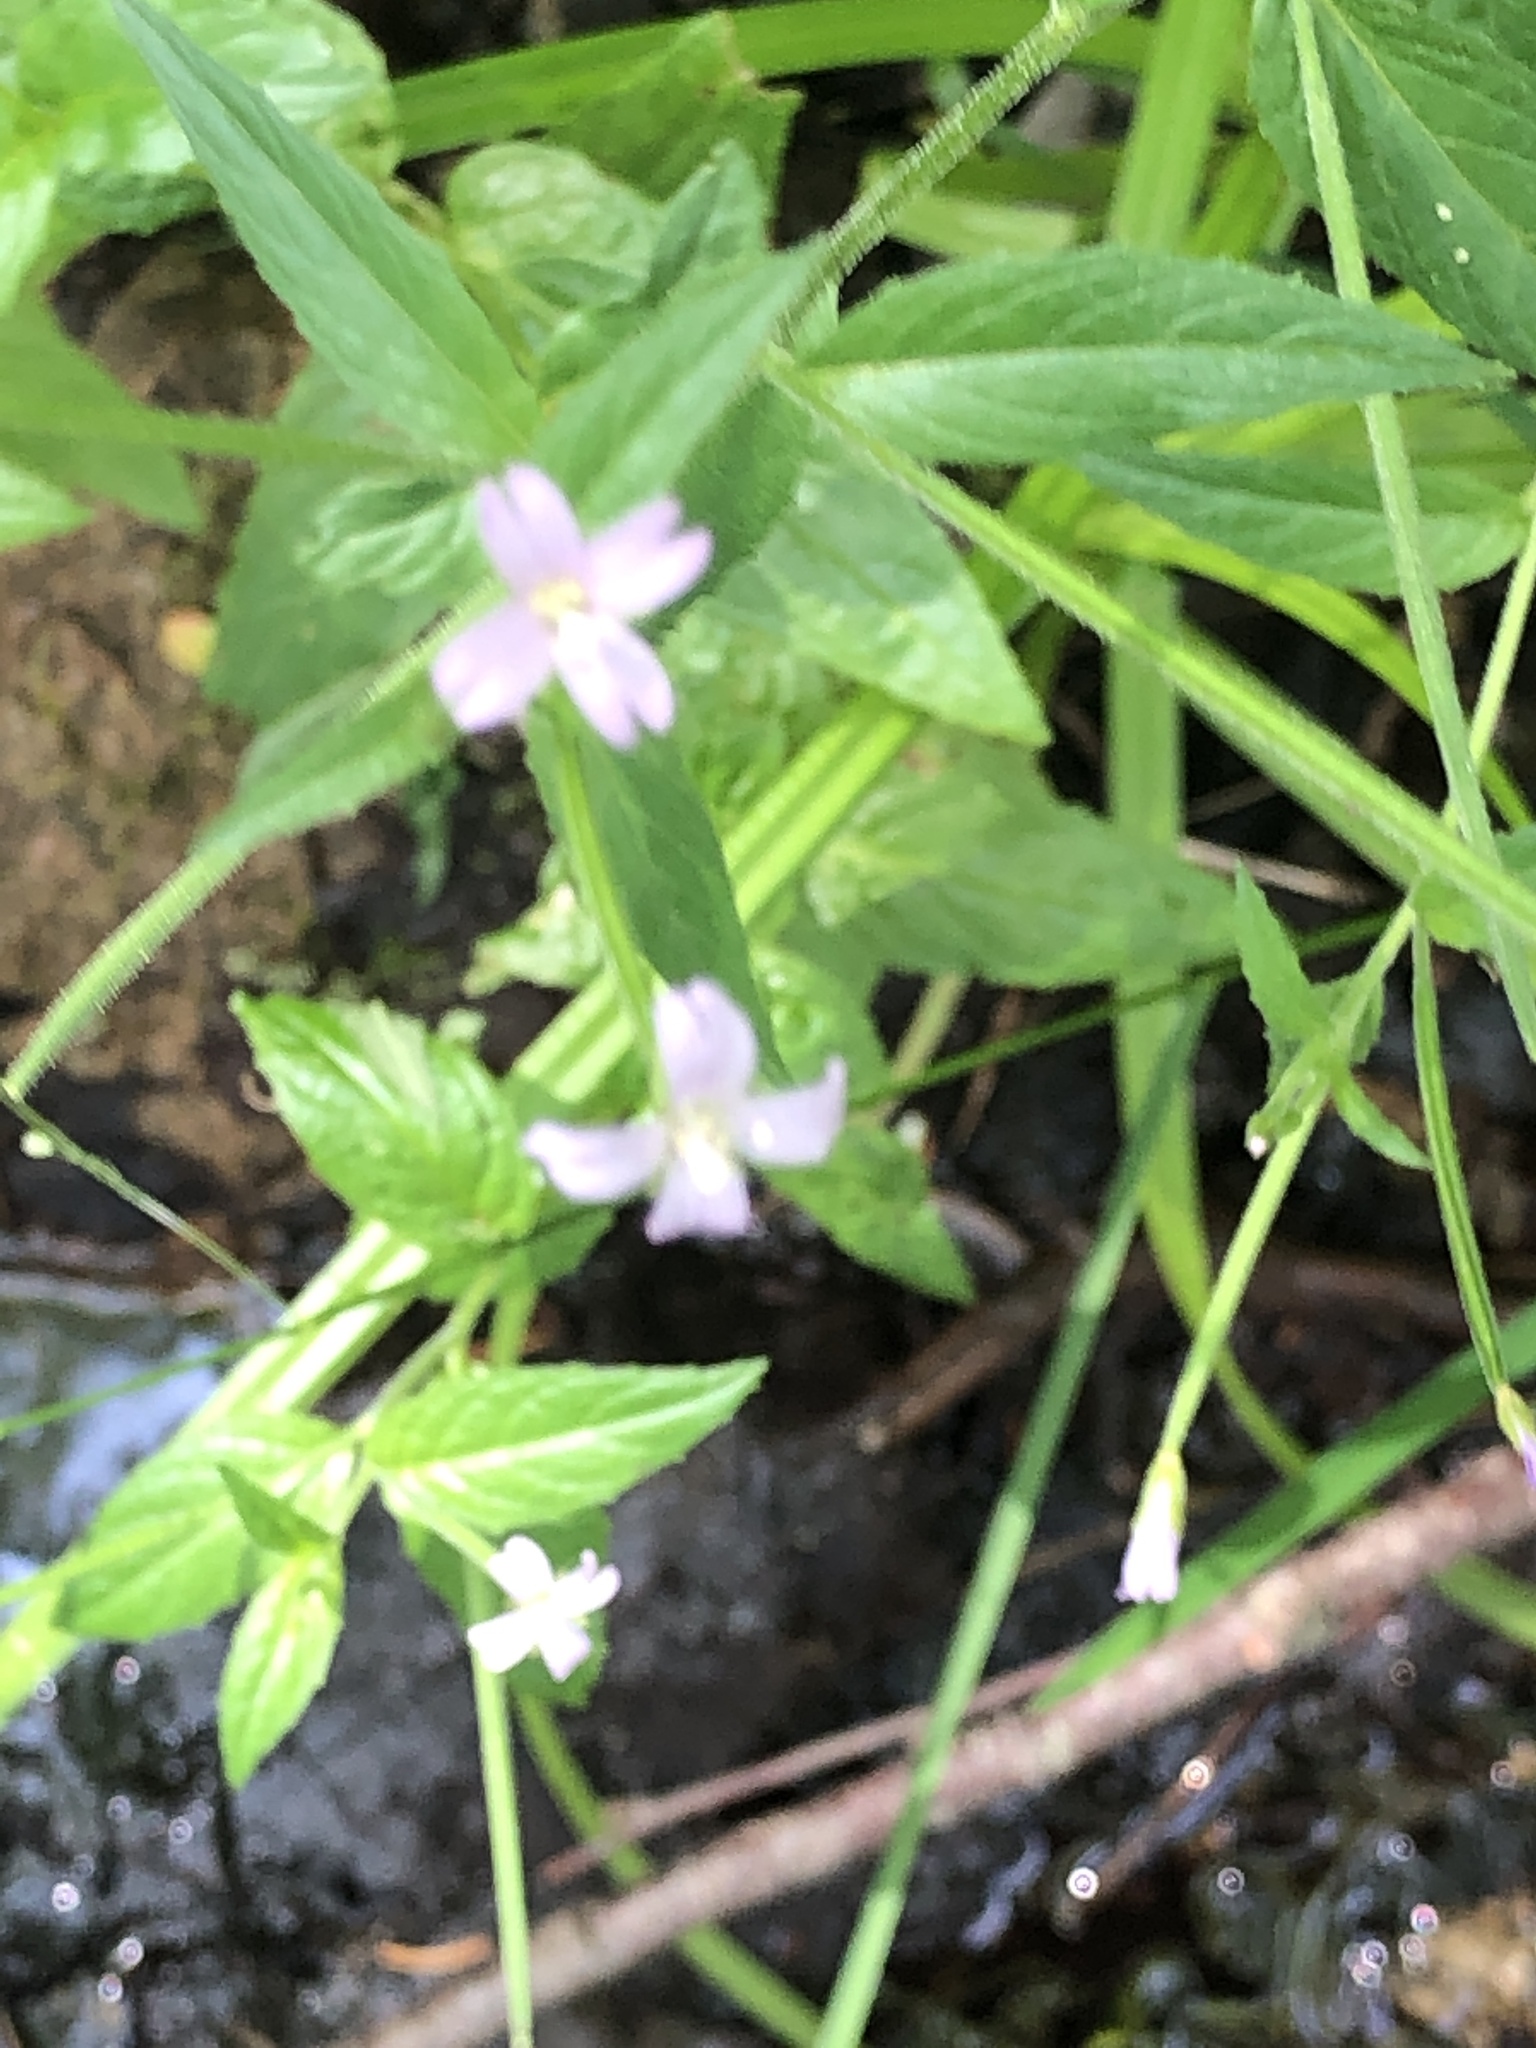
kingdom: Plantae
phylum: Tracheophyta
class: Magnoliopsida
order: Myrtales
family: Onagraceae
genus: Epilobium
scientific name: Epilobium ciliatum
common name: American willowherb
